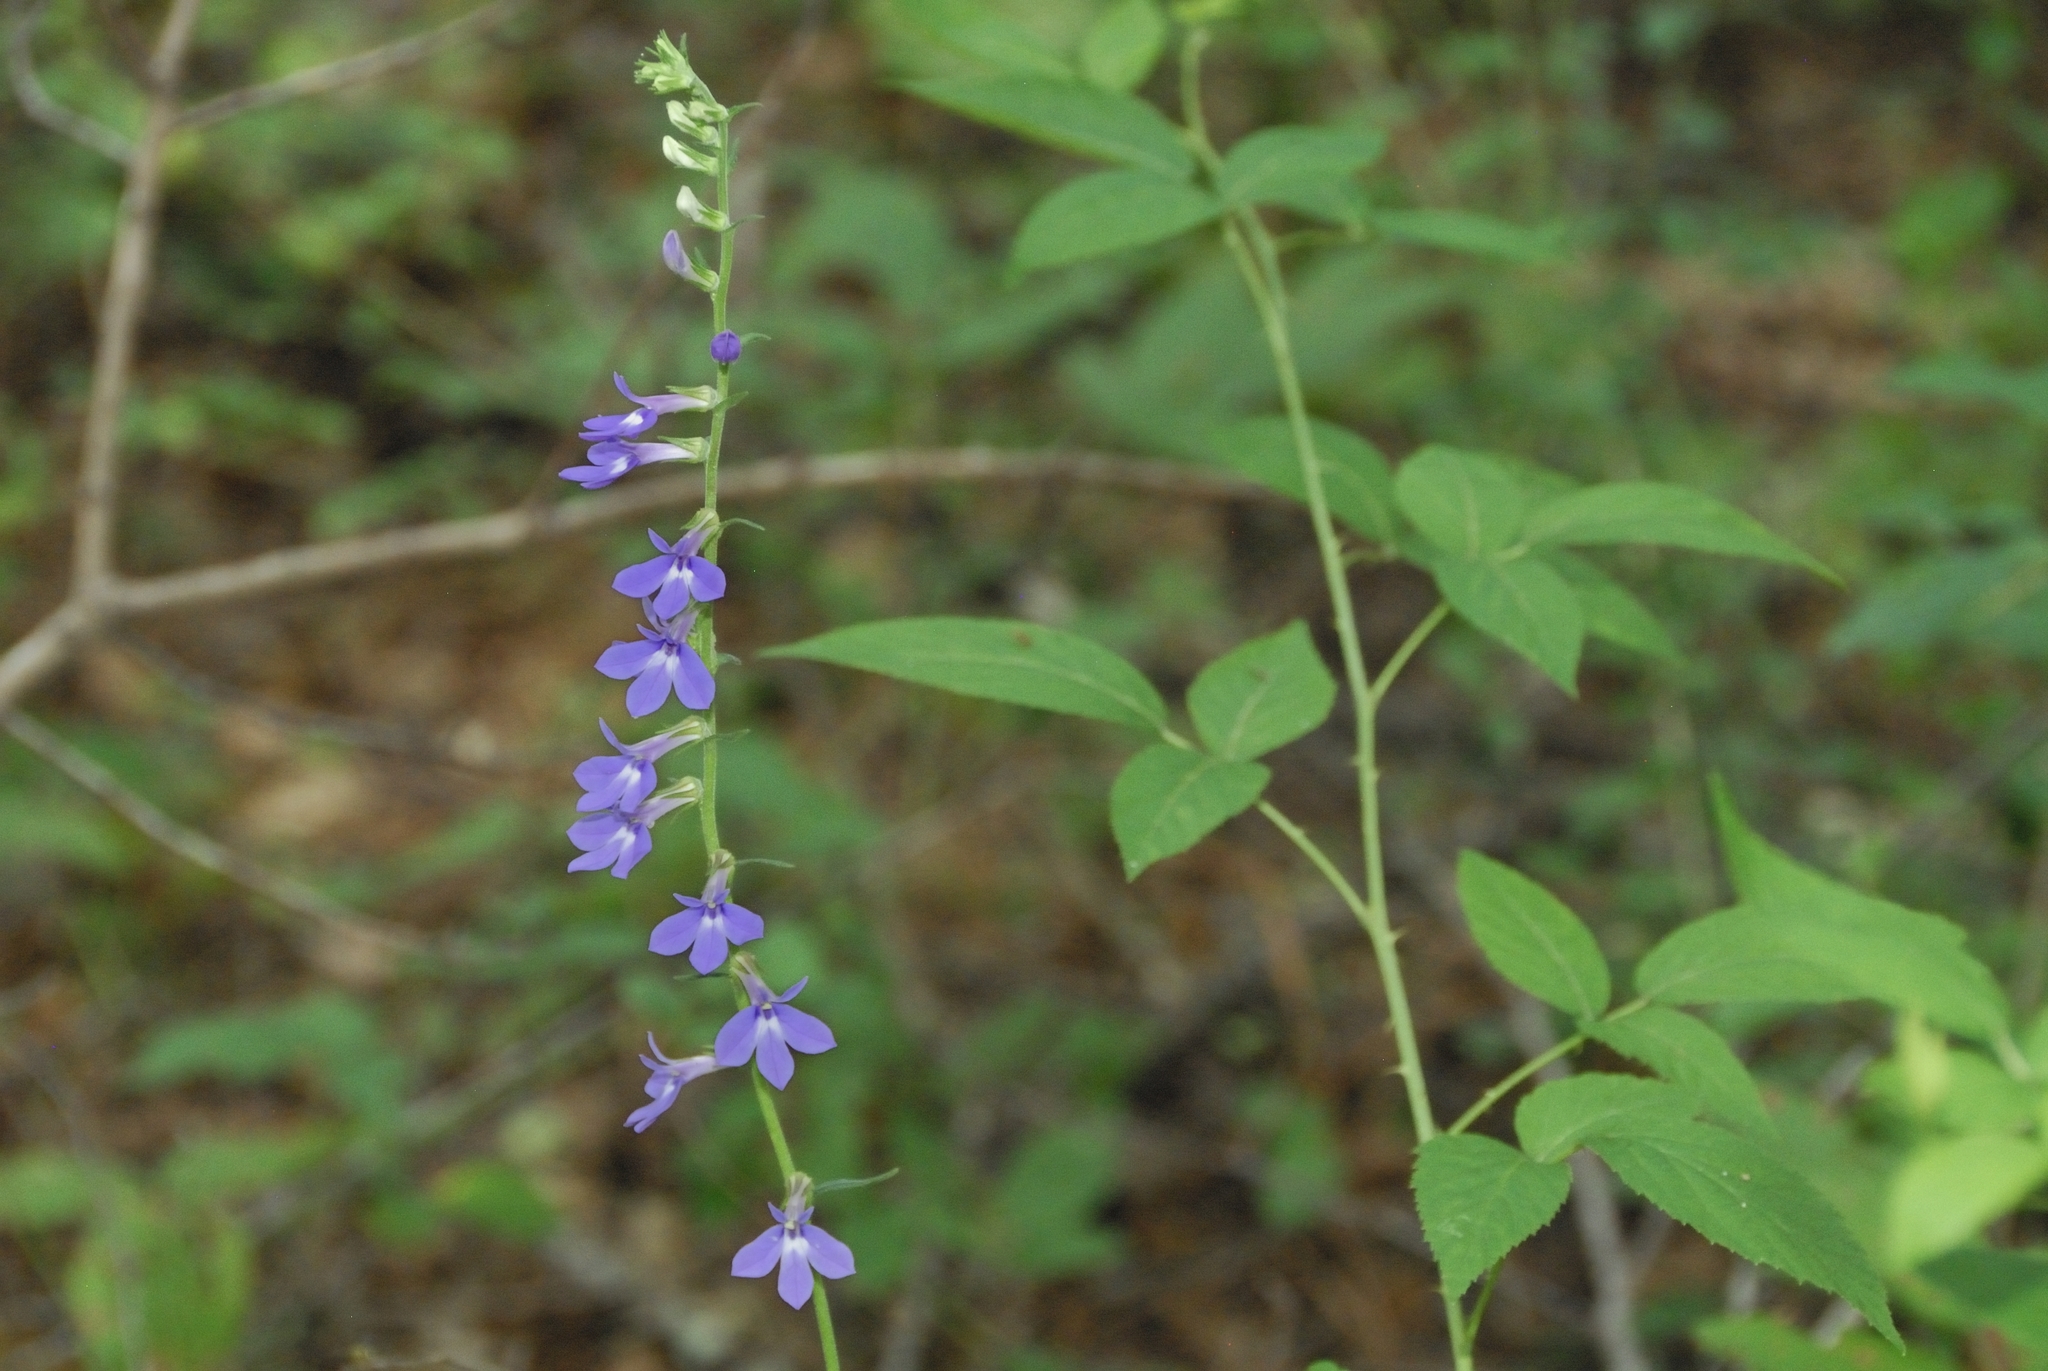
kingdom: Plantae
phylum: Tracheophyta
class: Magnoliopsida
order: Asterales
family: Campanulaceae
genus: Lobelia
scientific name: Lobelia puberula
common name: Purple dewdrop
